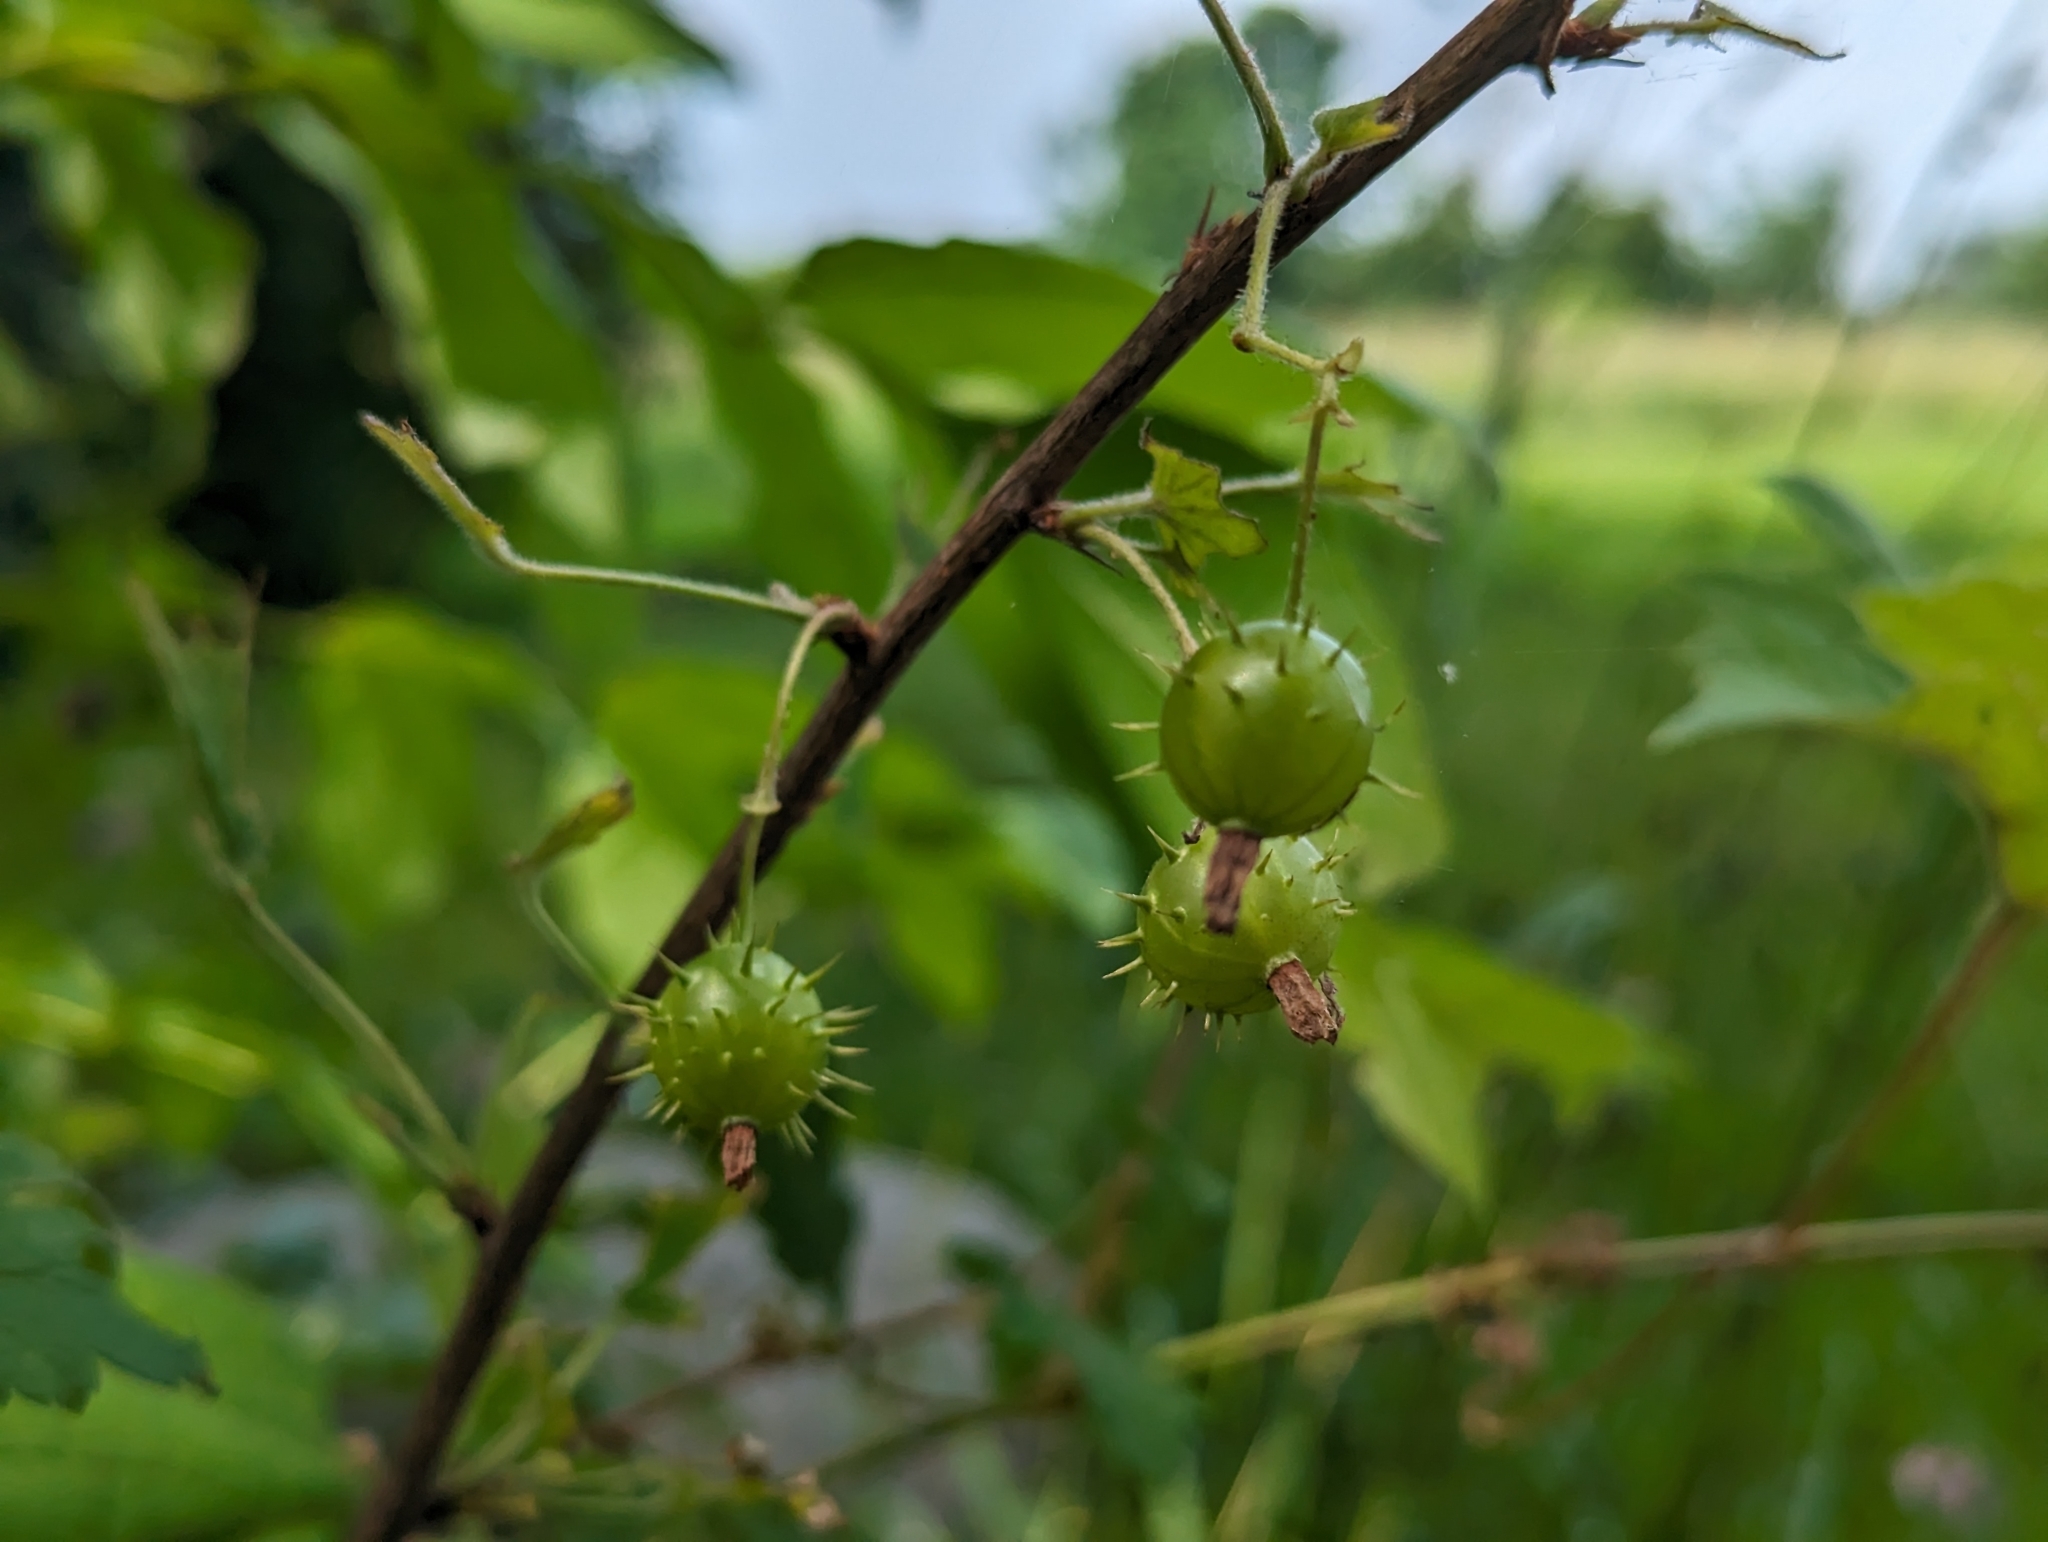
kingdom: Plantae
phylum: Tracheophyta
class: Magnoliopsida
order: Saxifragales
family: Grossulariaceae
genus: Ribes
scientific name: Ribes cynosbati
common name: American gooseberry
